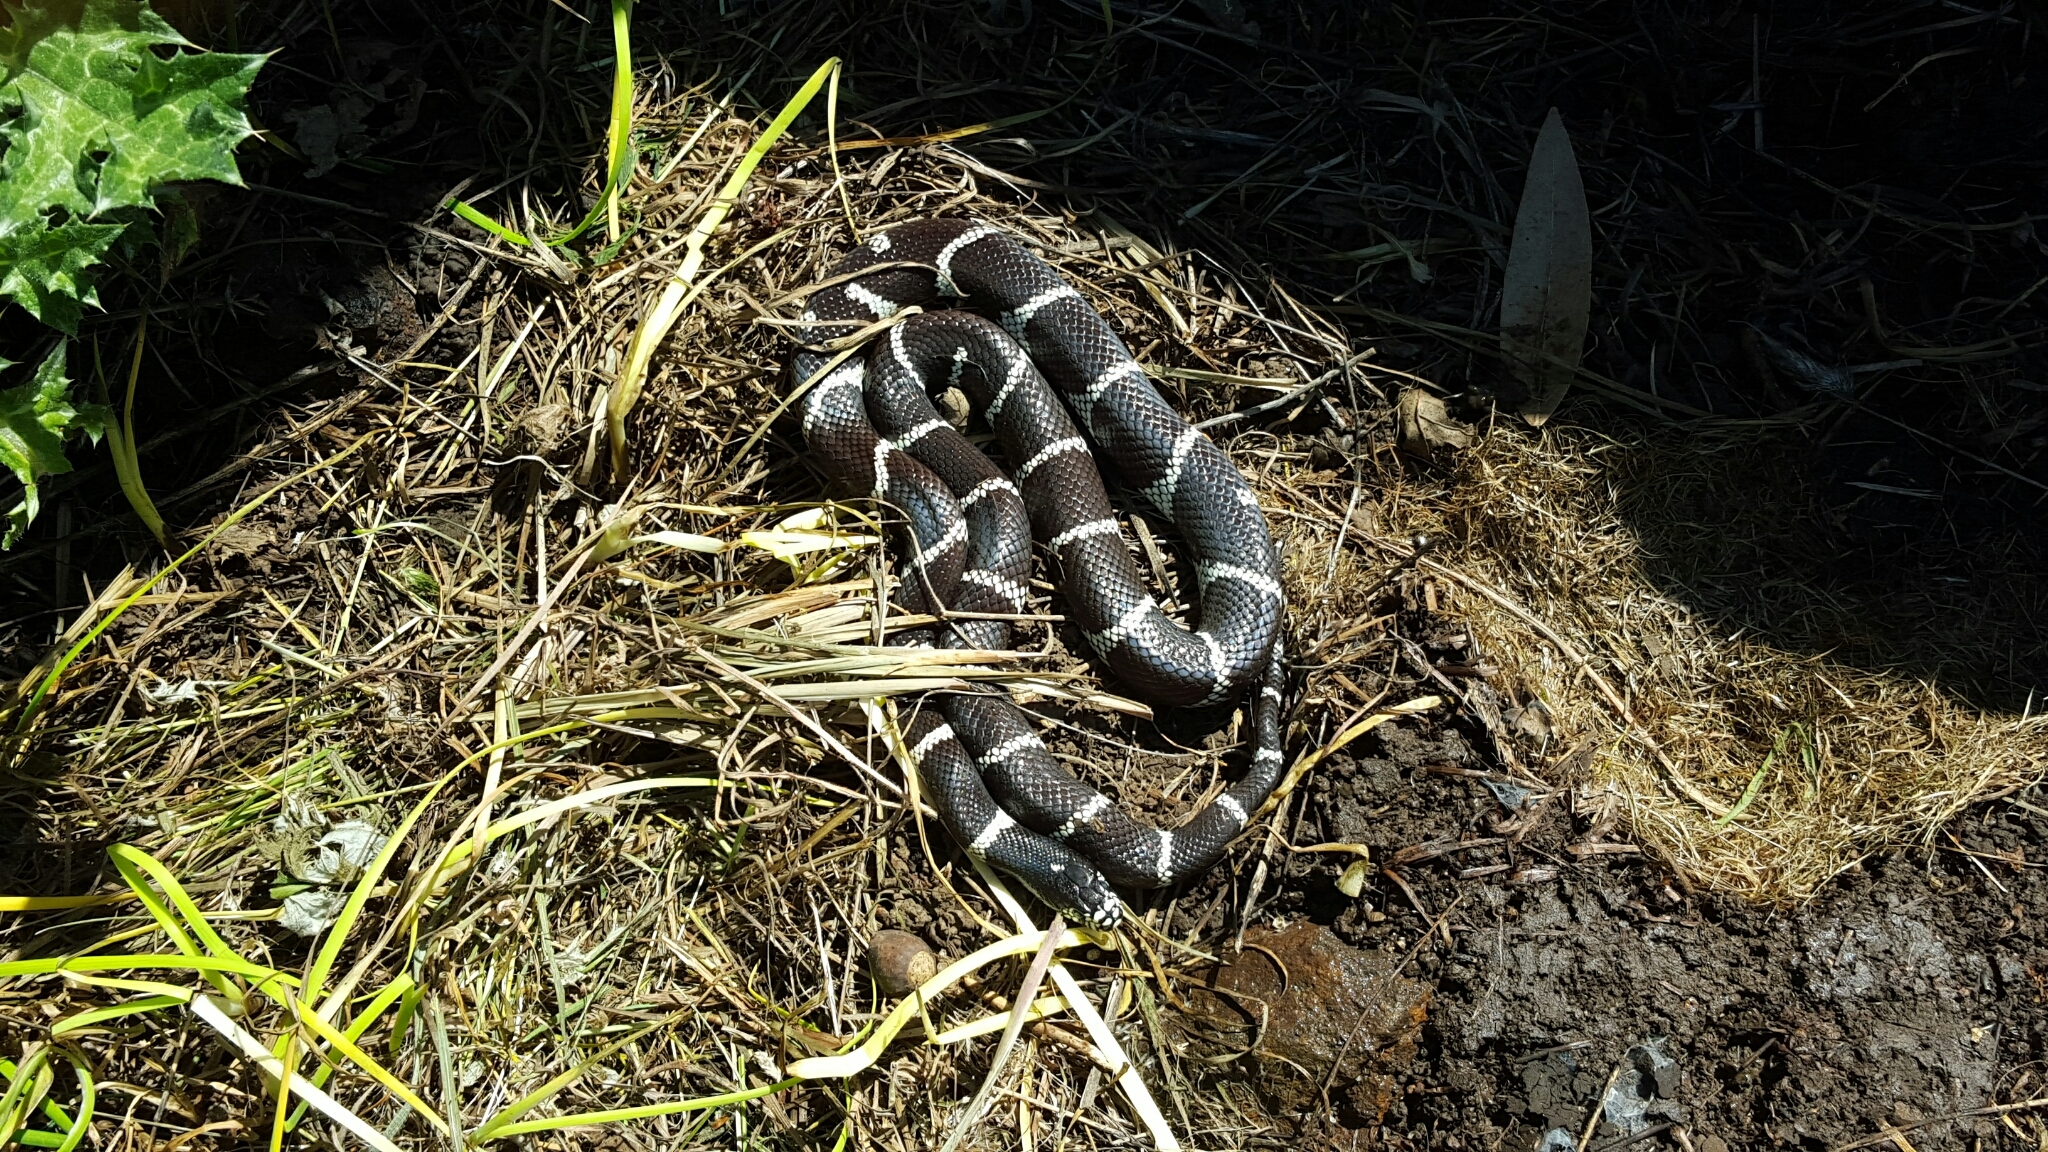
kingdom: Animalia
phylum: Chordata
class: Squamata
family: Colubridae
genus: Lampropeltis
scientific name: Lampropeltis californiae
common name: California kingsnake
